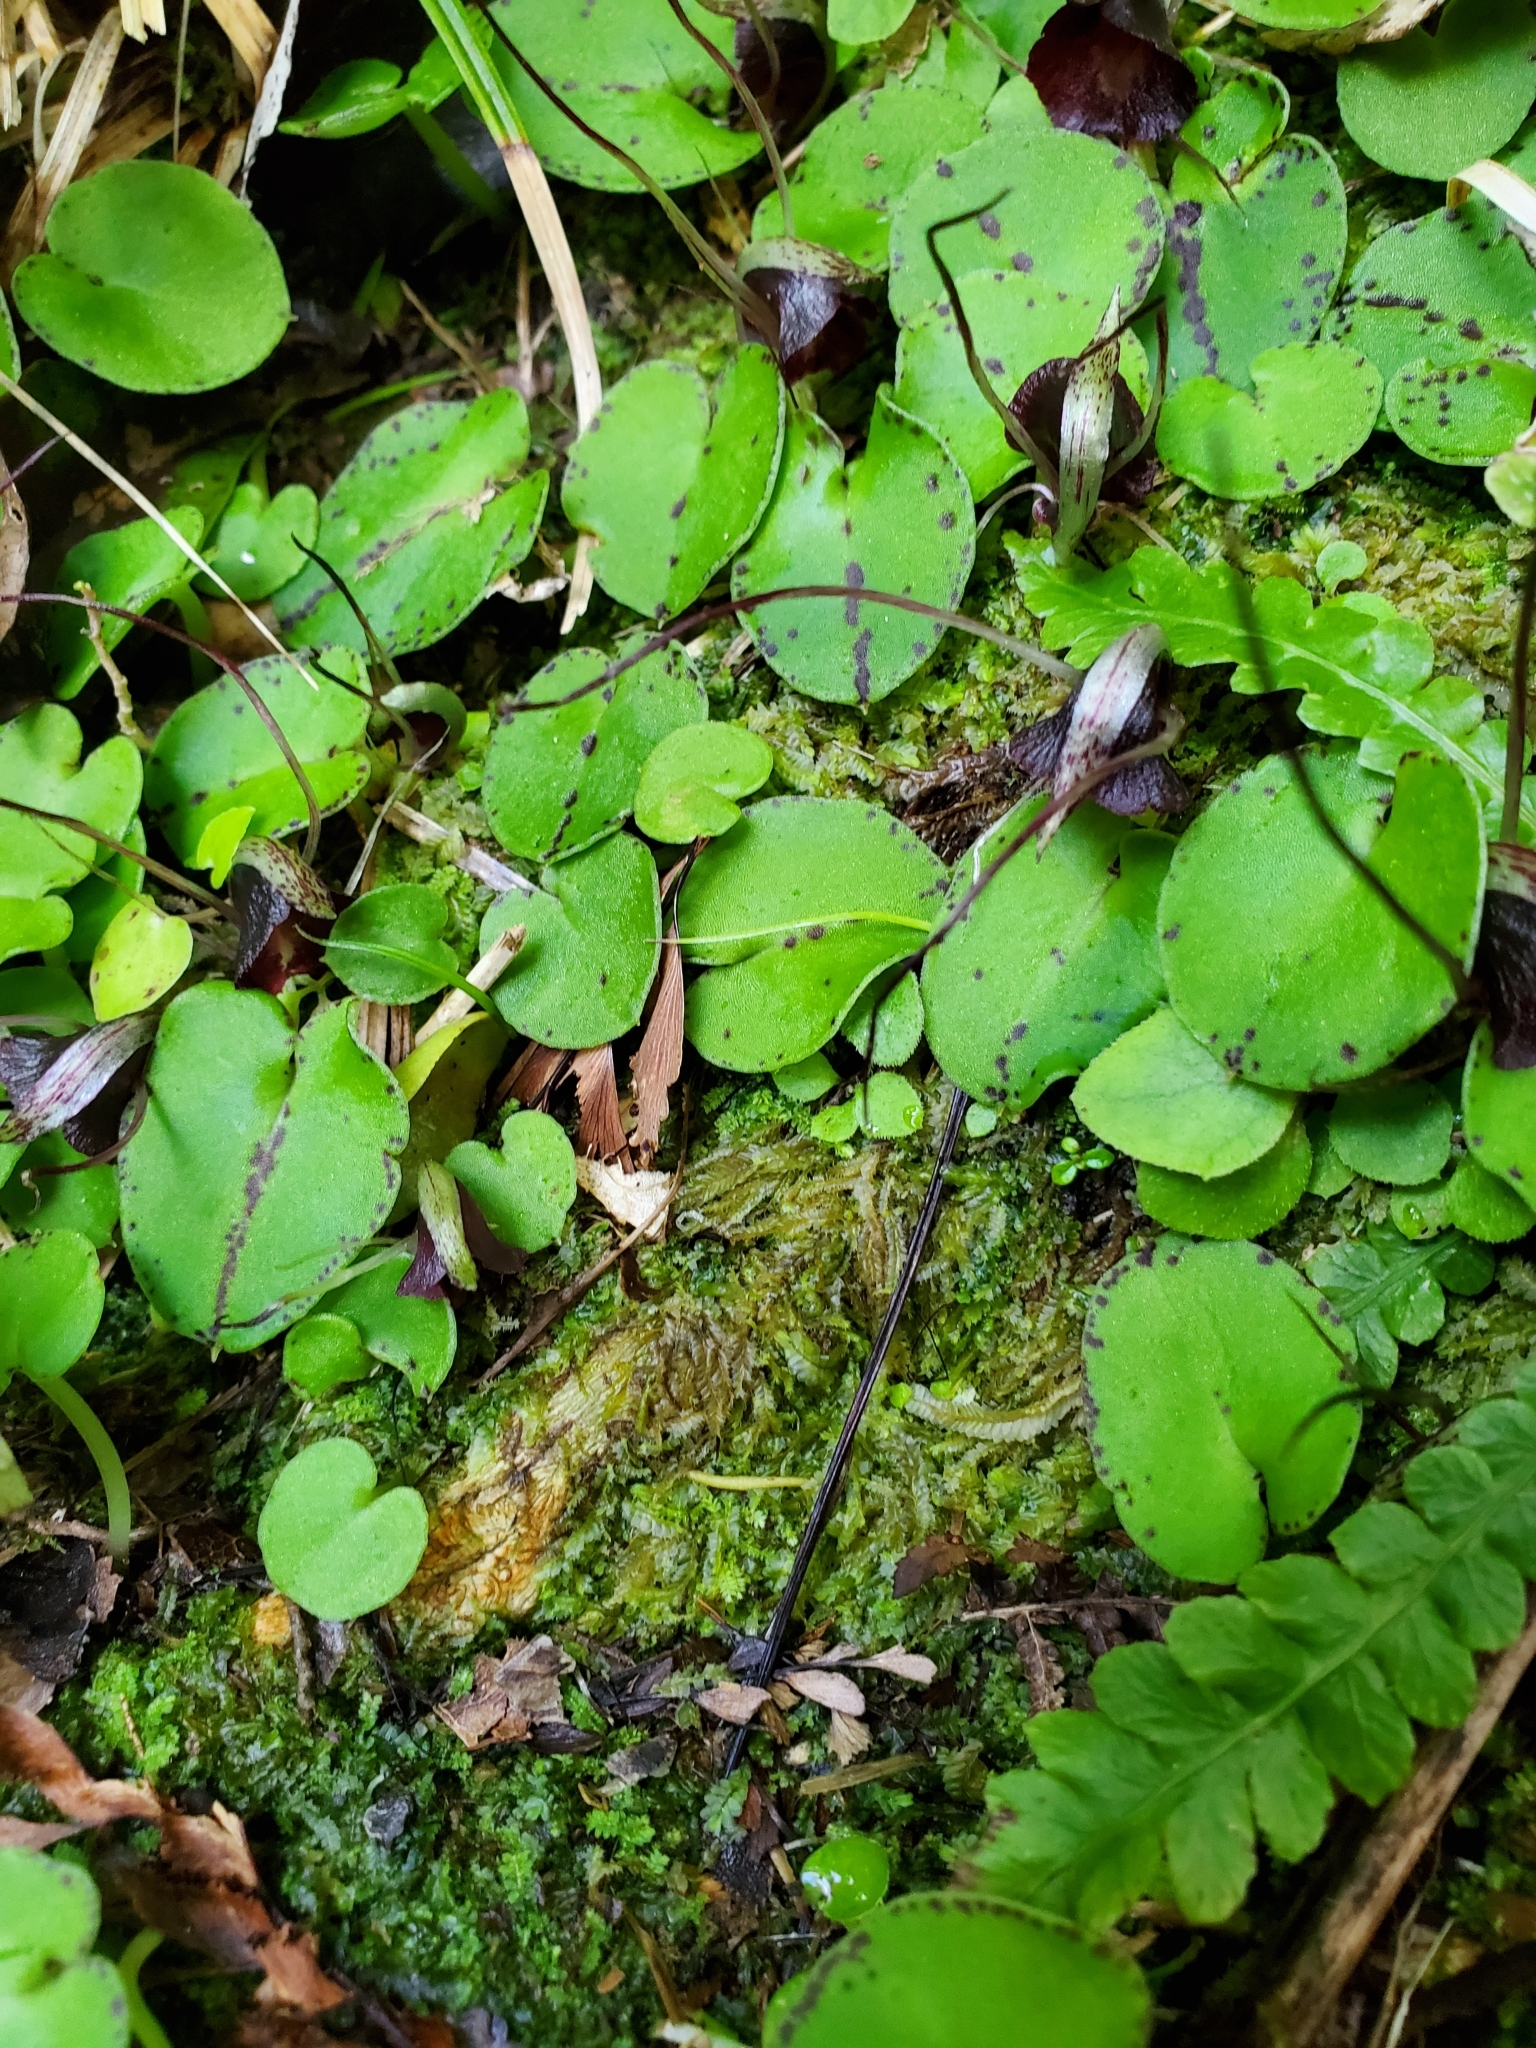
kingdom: Plantae
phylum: Tracheophyta
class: Liliopsida
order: Asparagales
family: Orchidaceae
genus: Corybas
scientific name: Corybas macranthus
